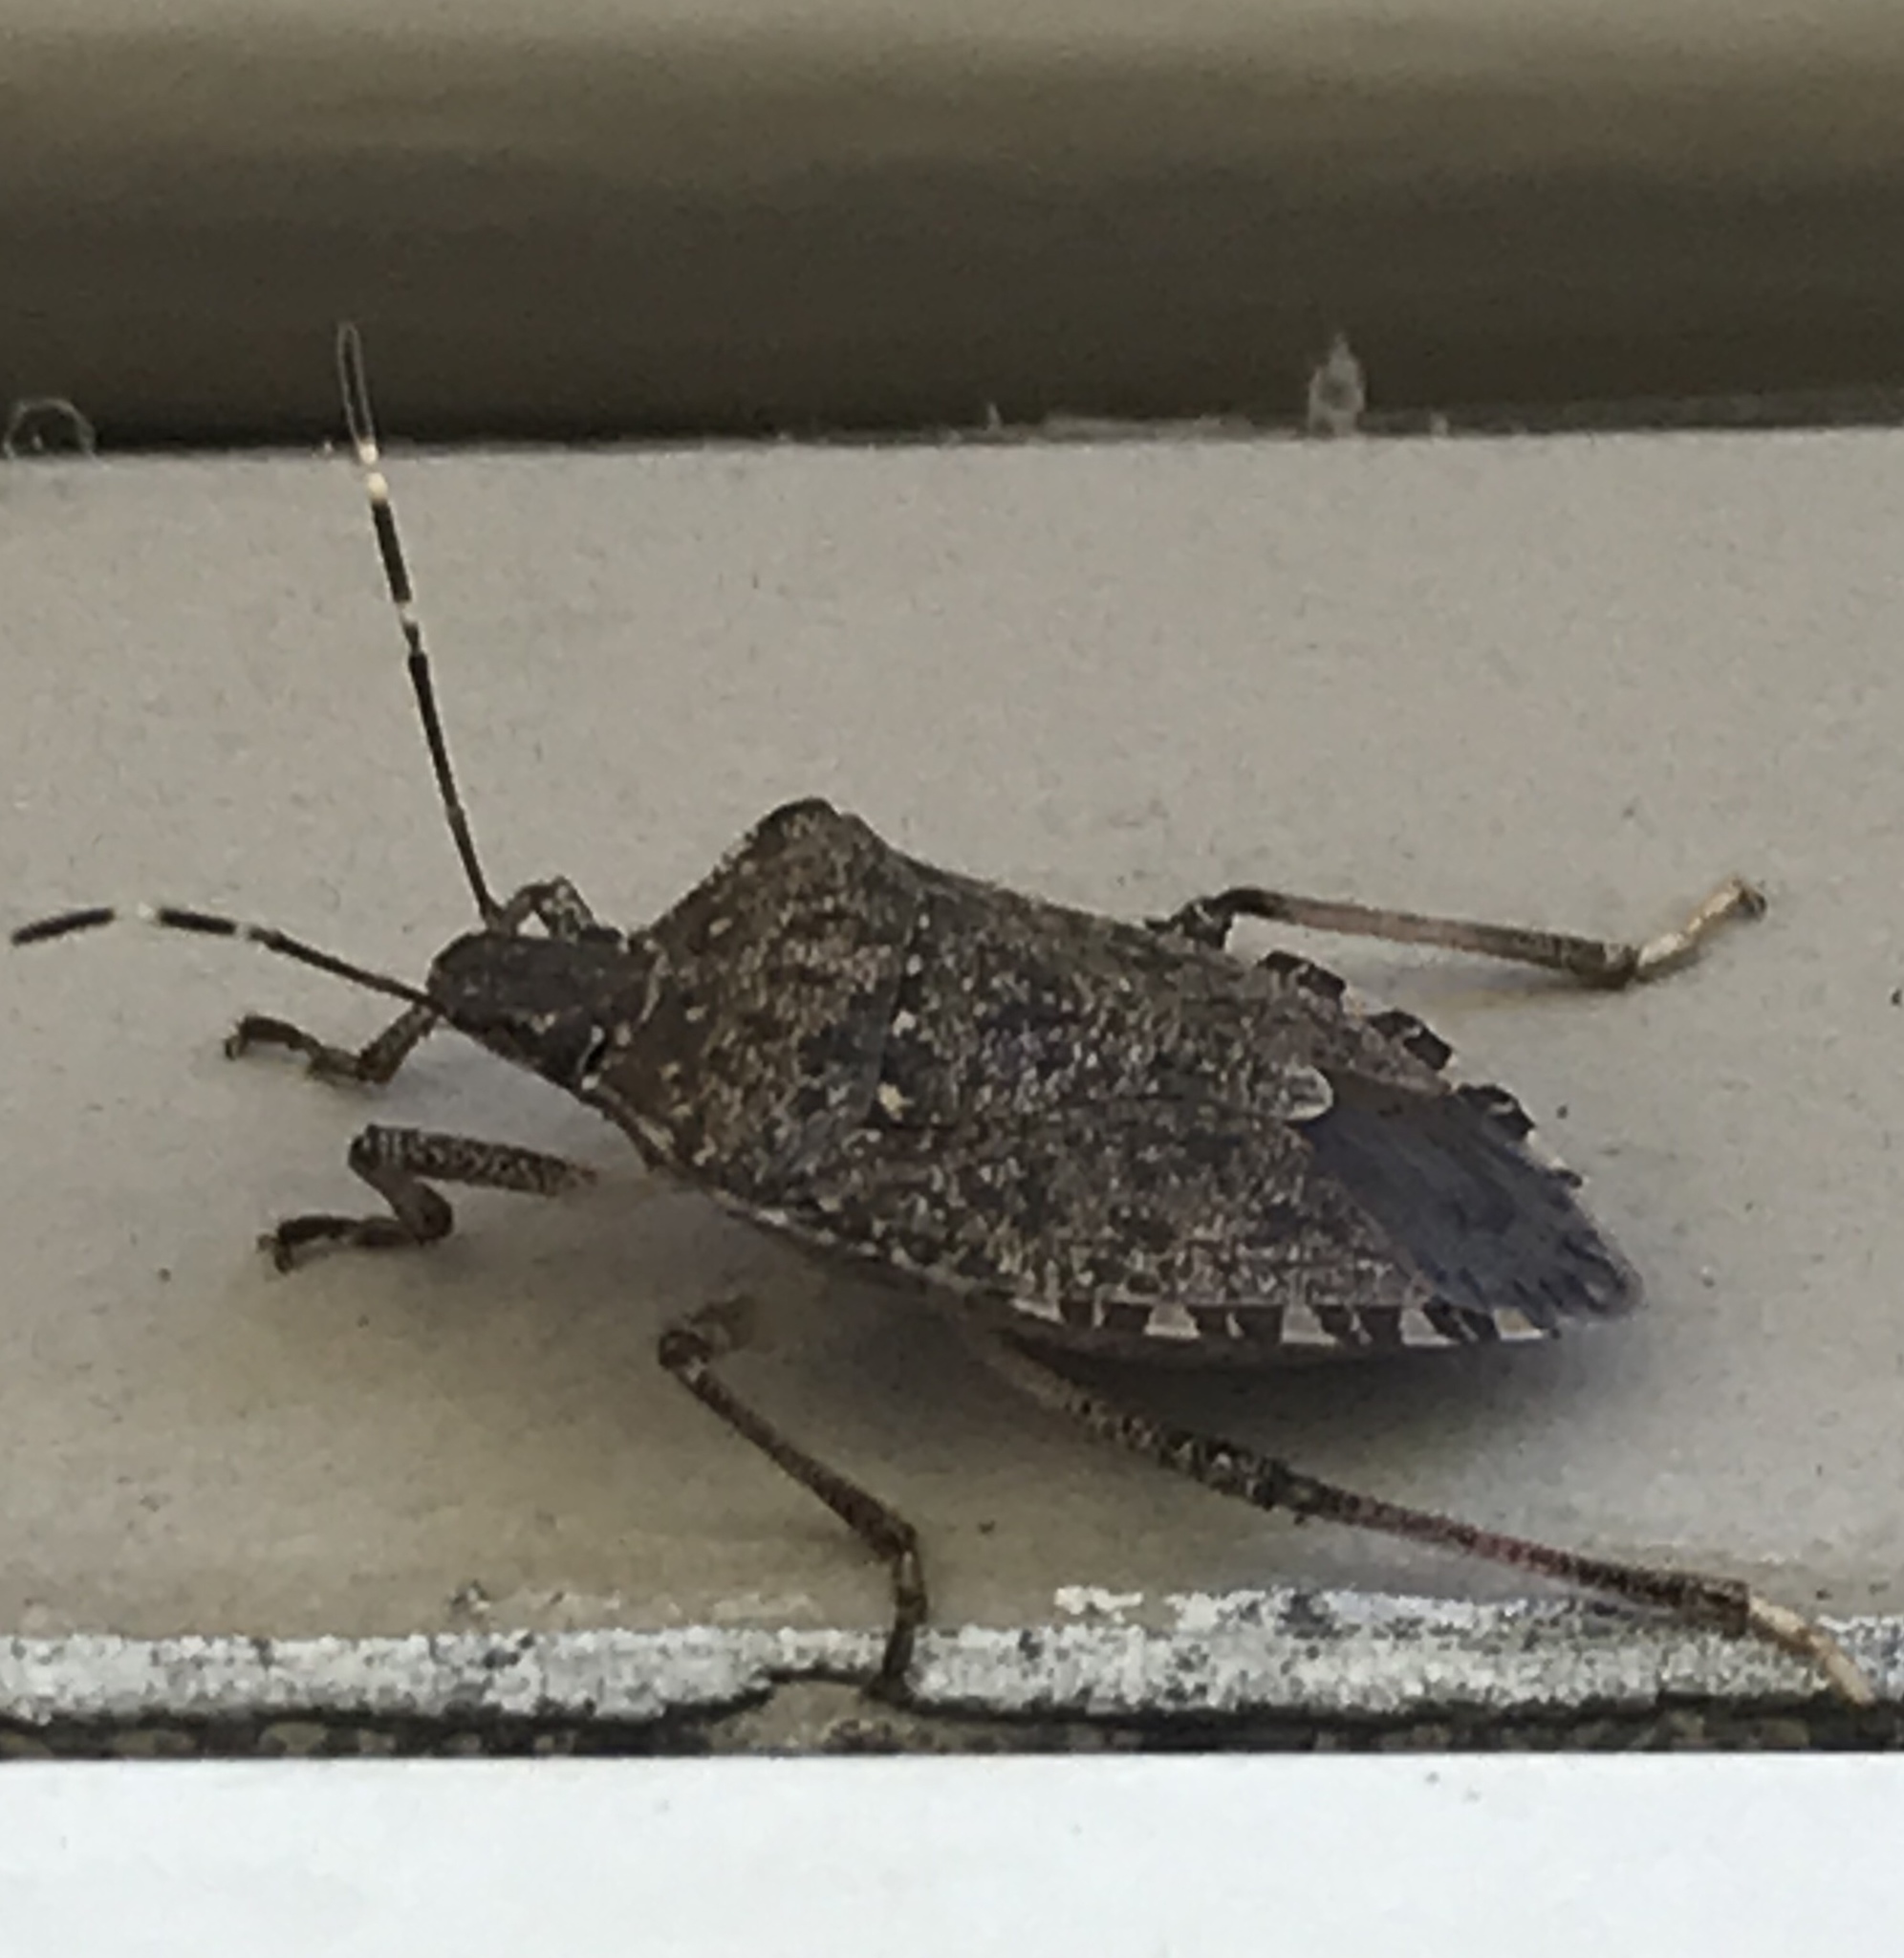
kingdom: Animalia
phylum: Arthropoda
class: Insecta
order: Hemiptera
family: Pentatomidae
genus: Halyomorpha
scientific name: Halyomorpha halys
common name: Brown marmorated stink bug
